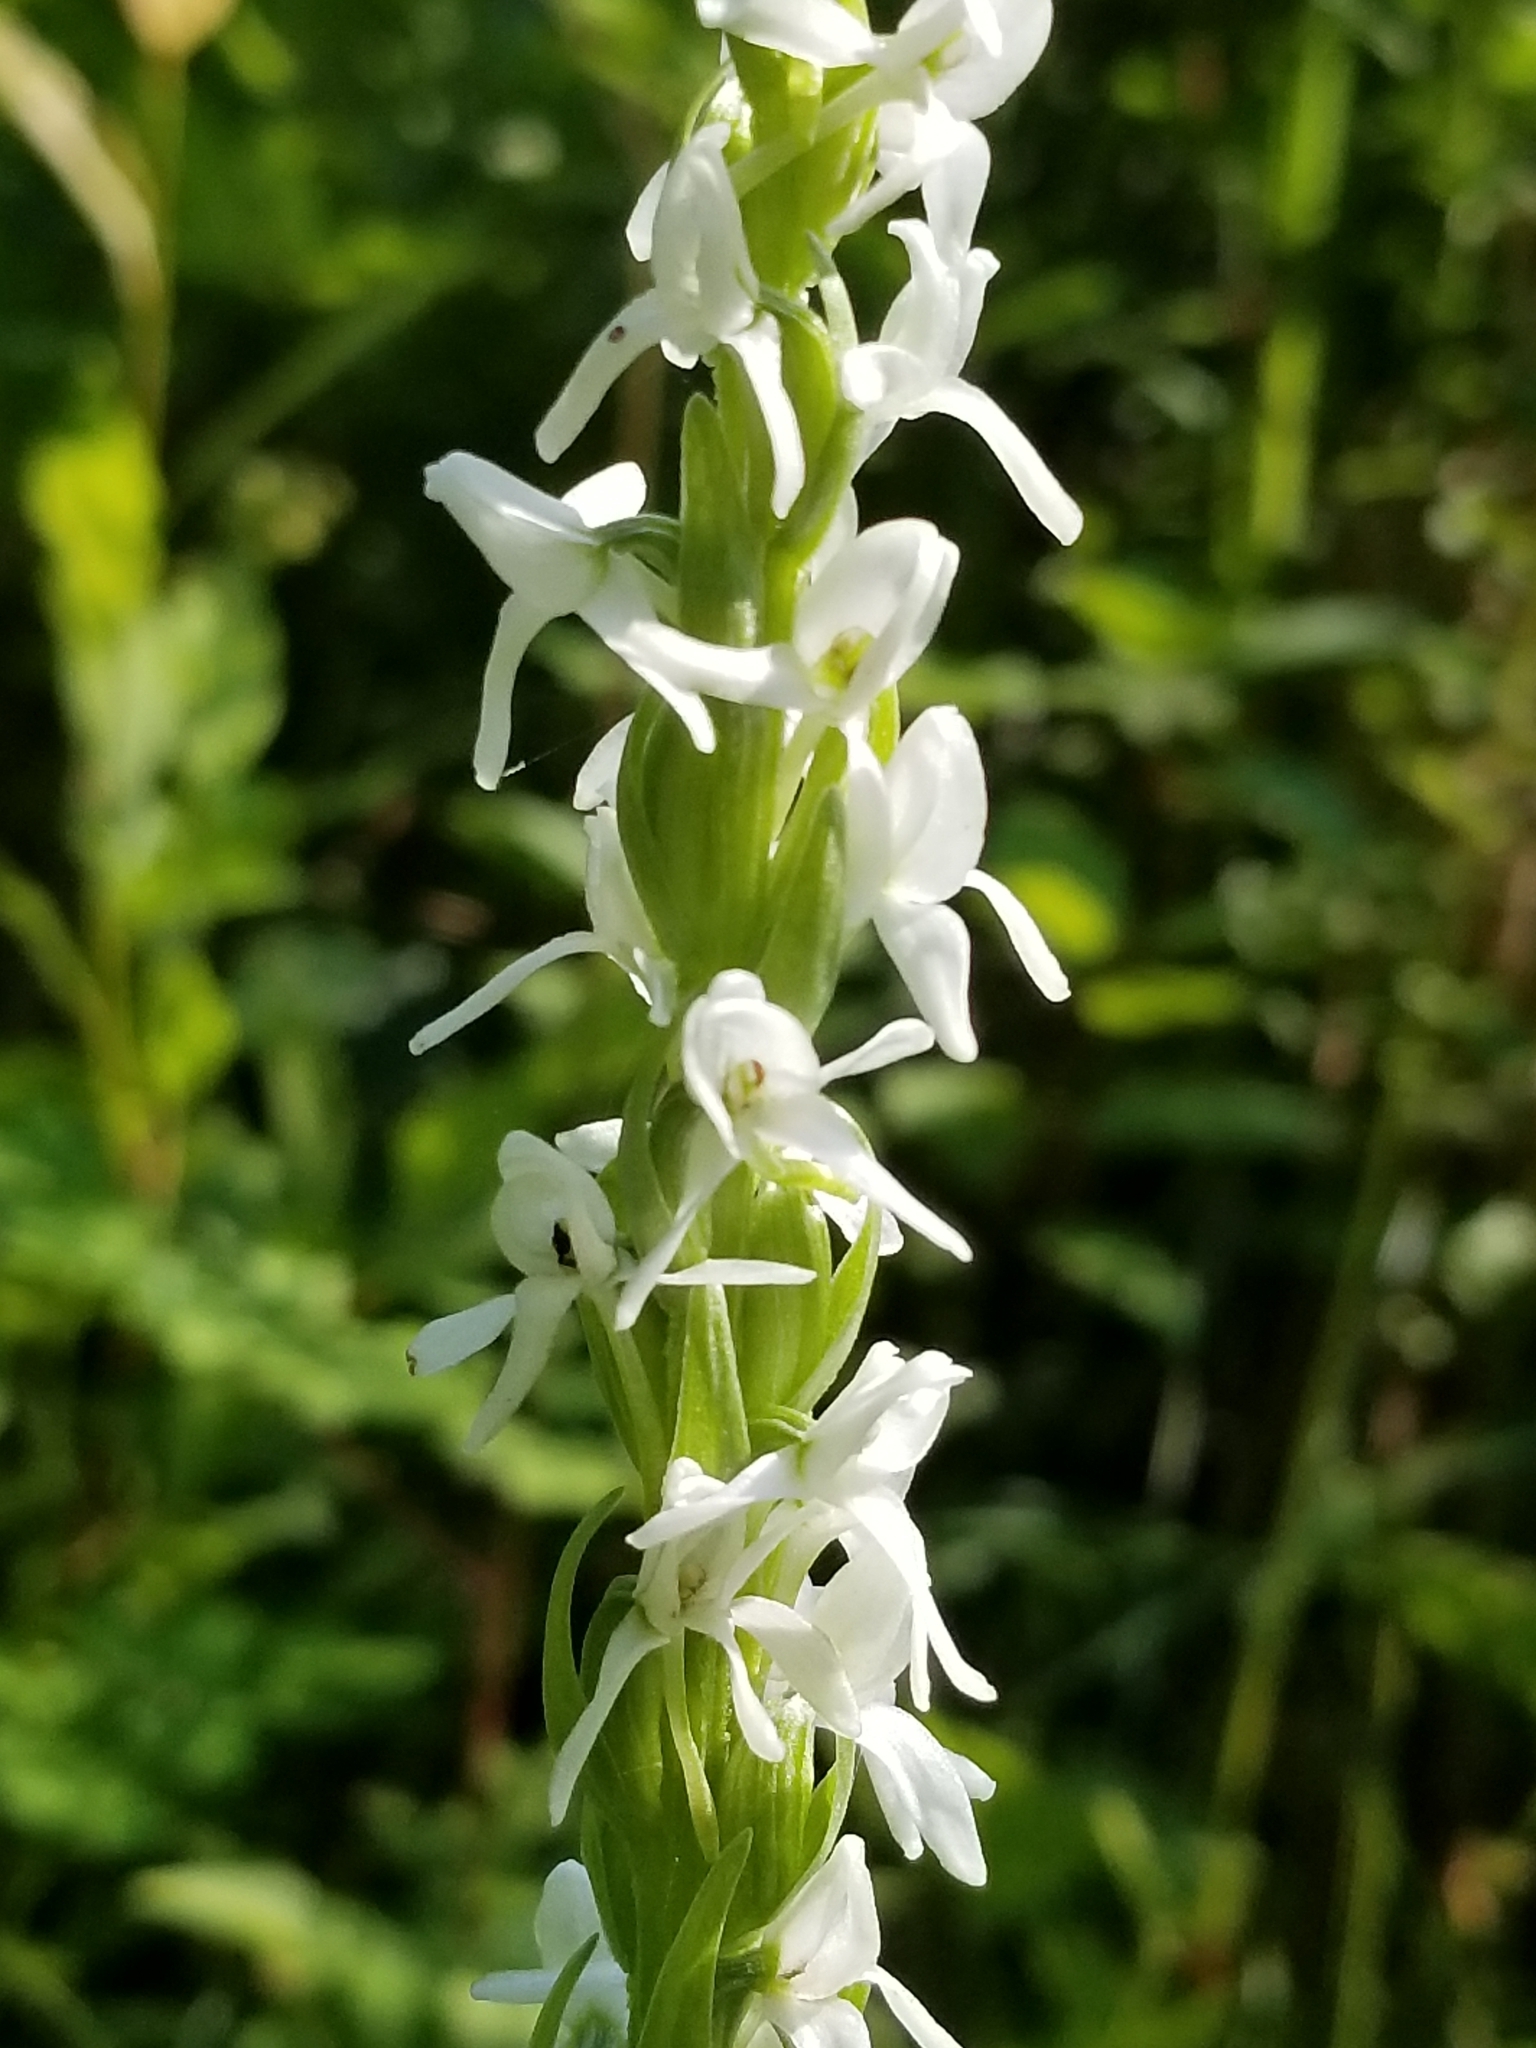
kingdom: Plantae
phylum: Tracheophyta
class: Liliopsida
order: Asparagales
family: Orchidaceae
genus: Platanthera
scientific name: Platanthera dilatata
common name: Bog candles
